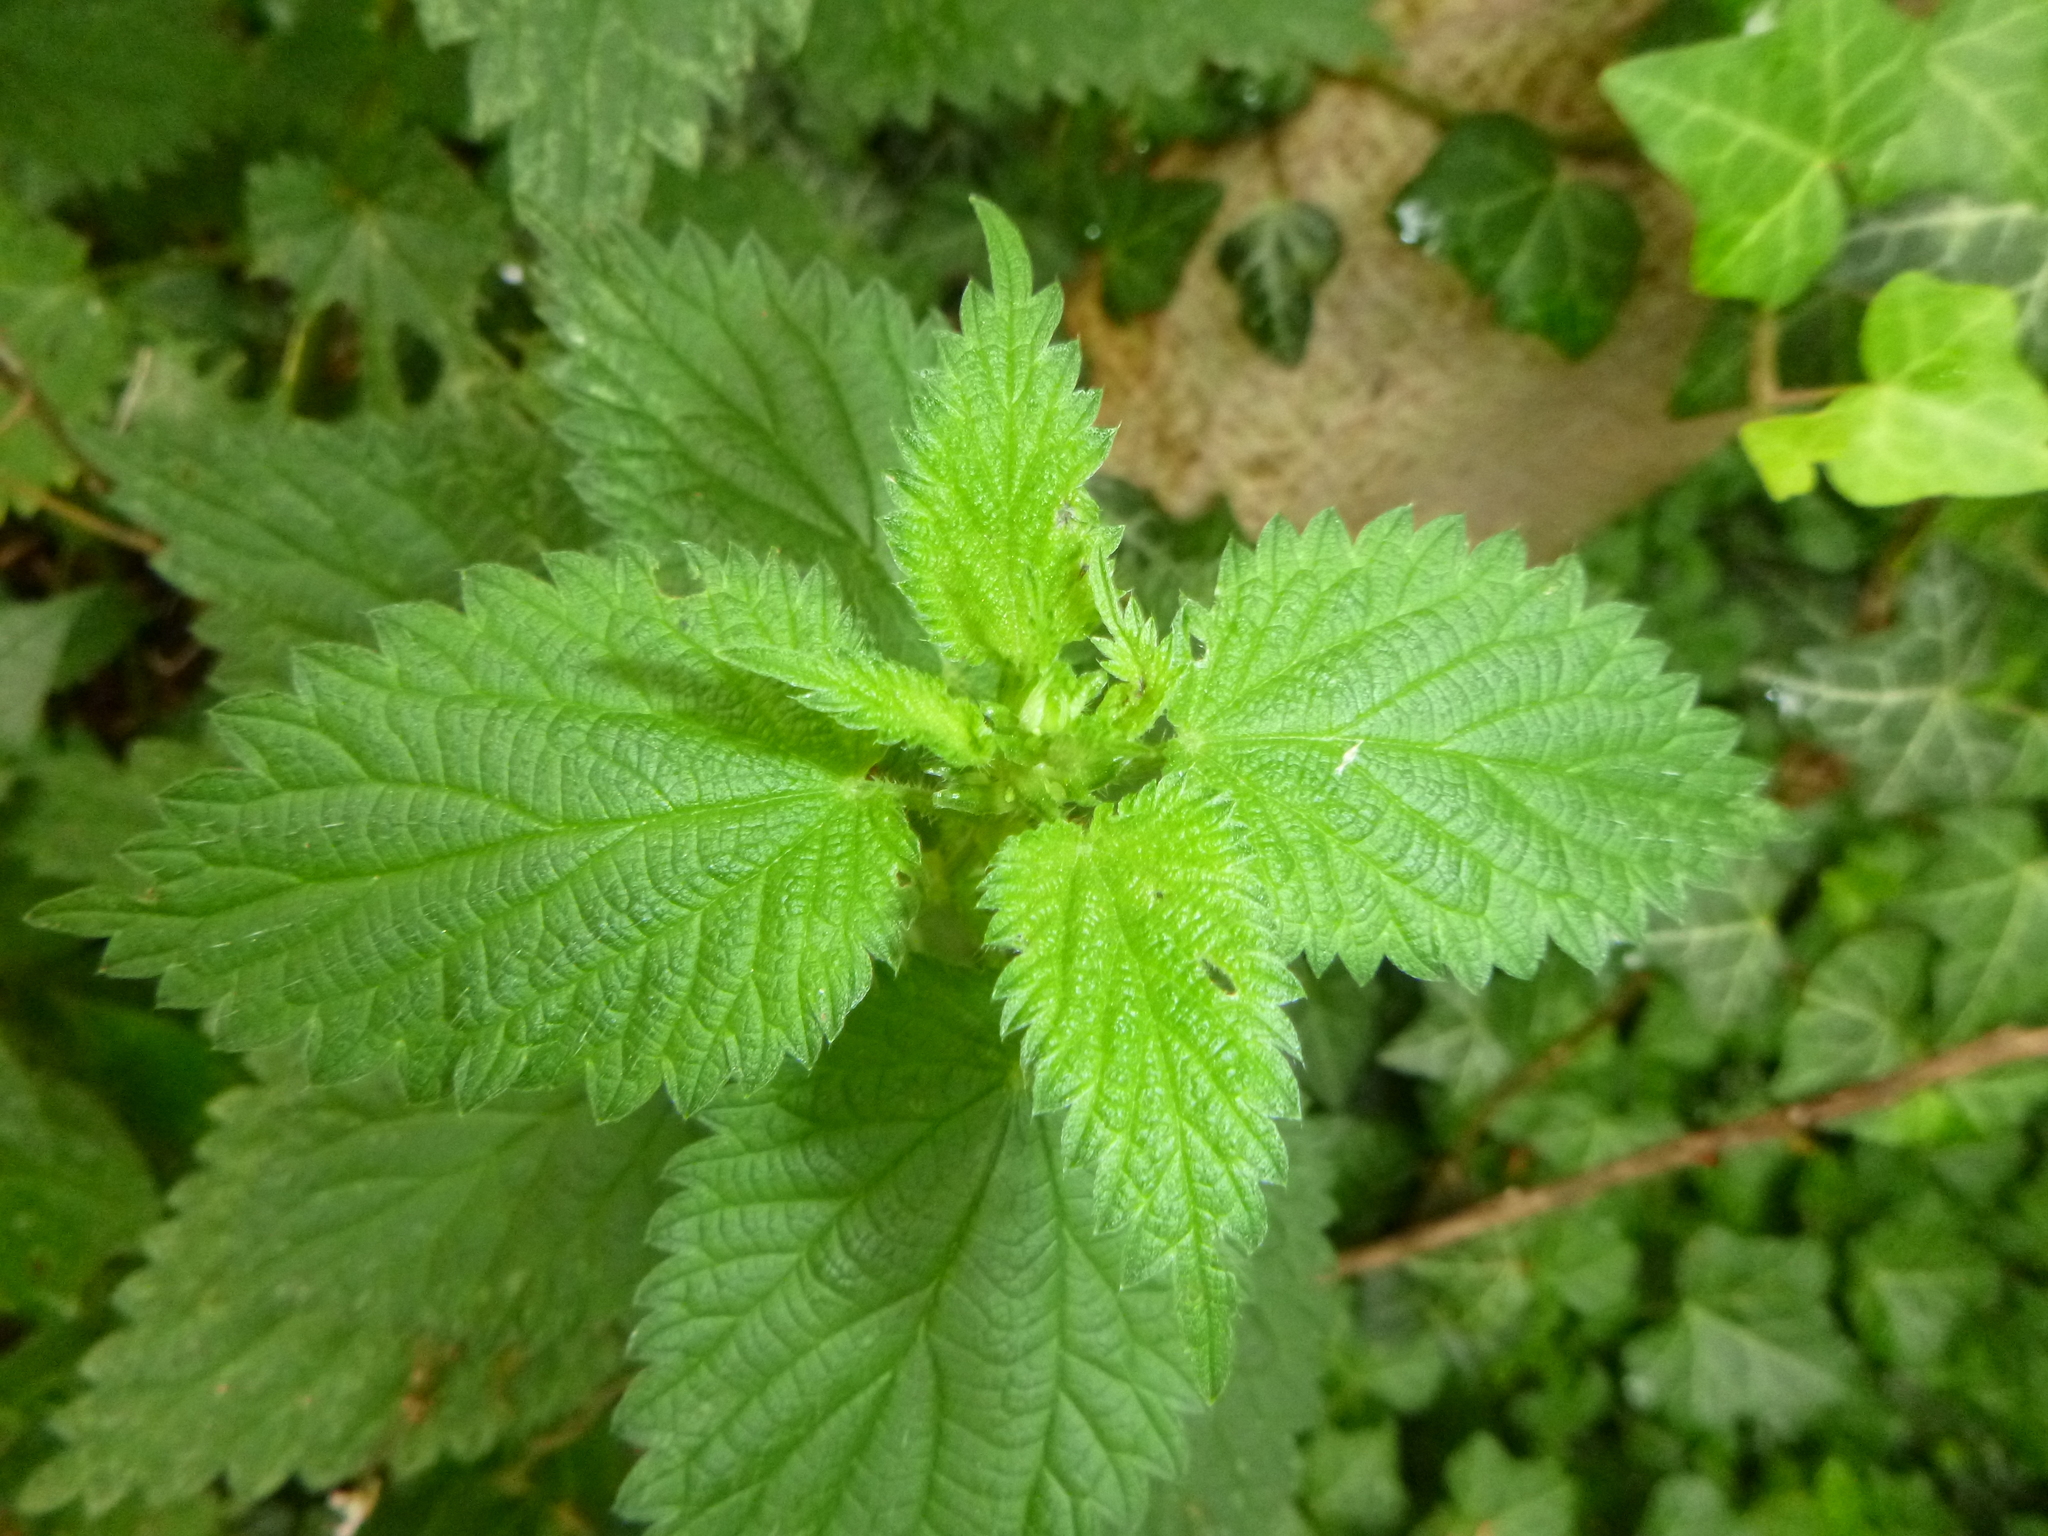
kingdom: Plantae
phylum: Tracheophyta
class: Magnoliopsida
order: Rosales
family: Urticaceae
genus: Urtica
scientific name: Urtica dioica
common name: Common nettle
